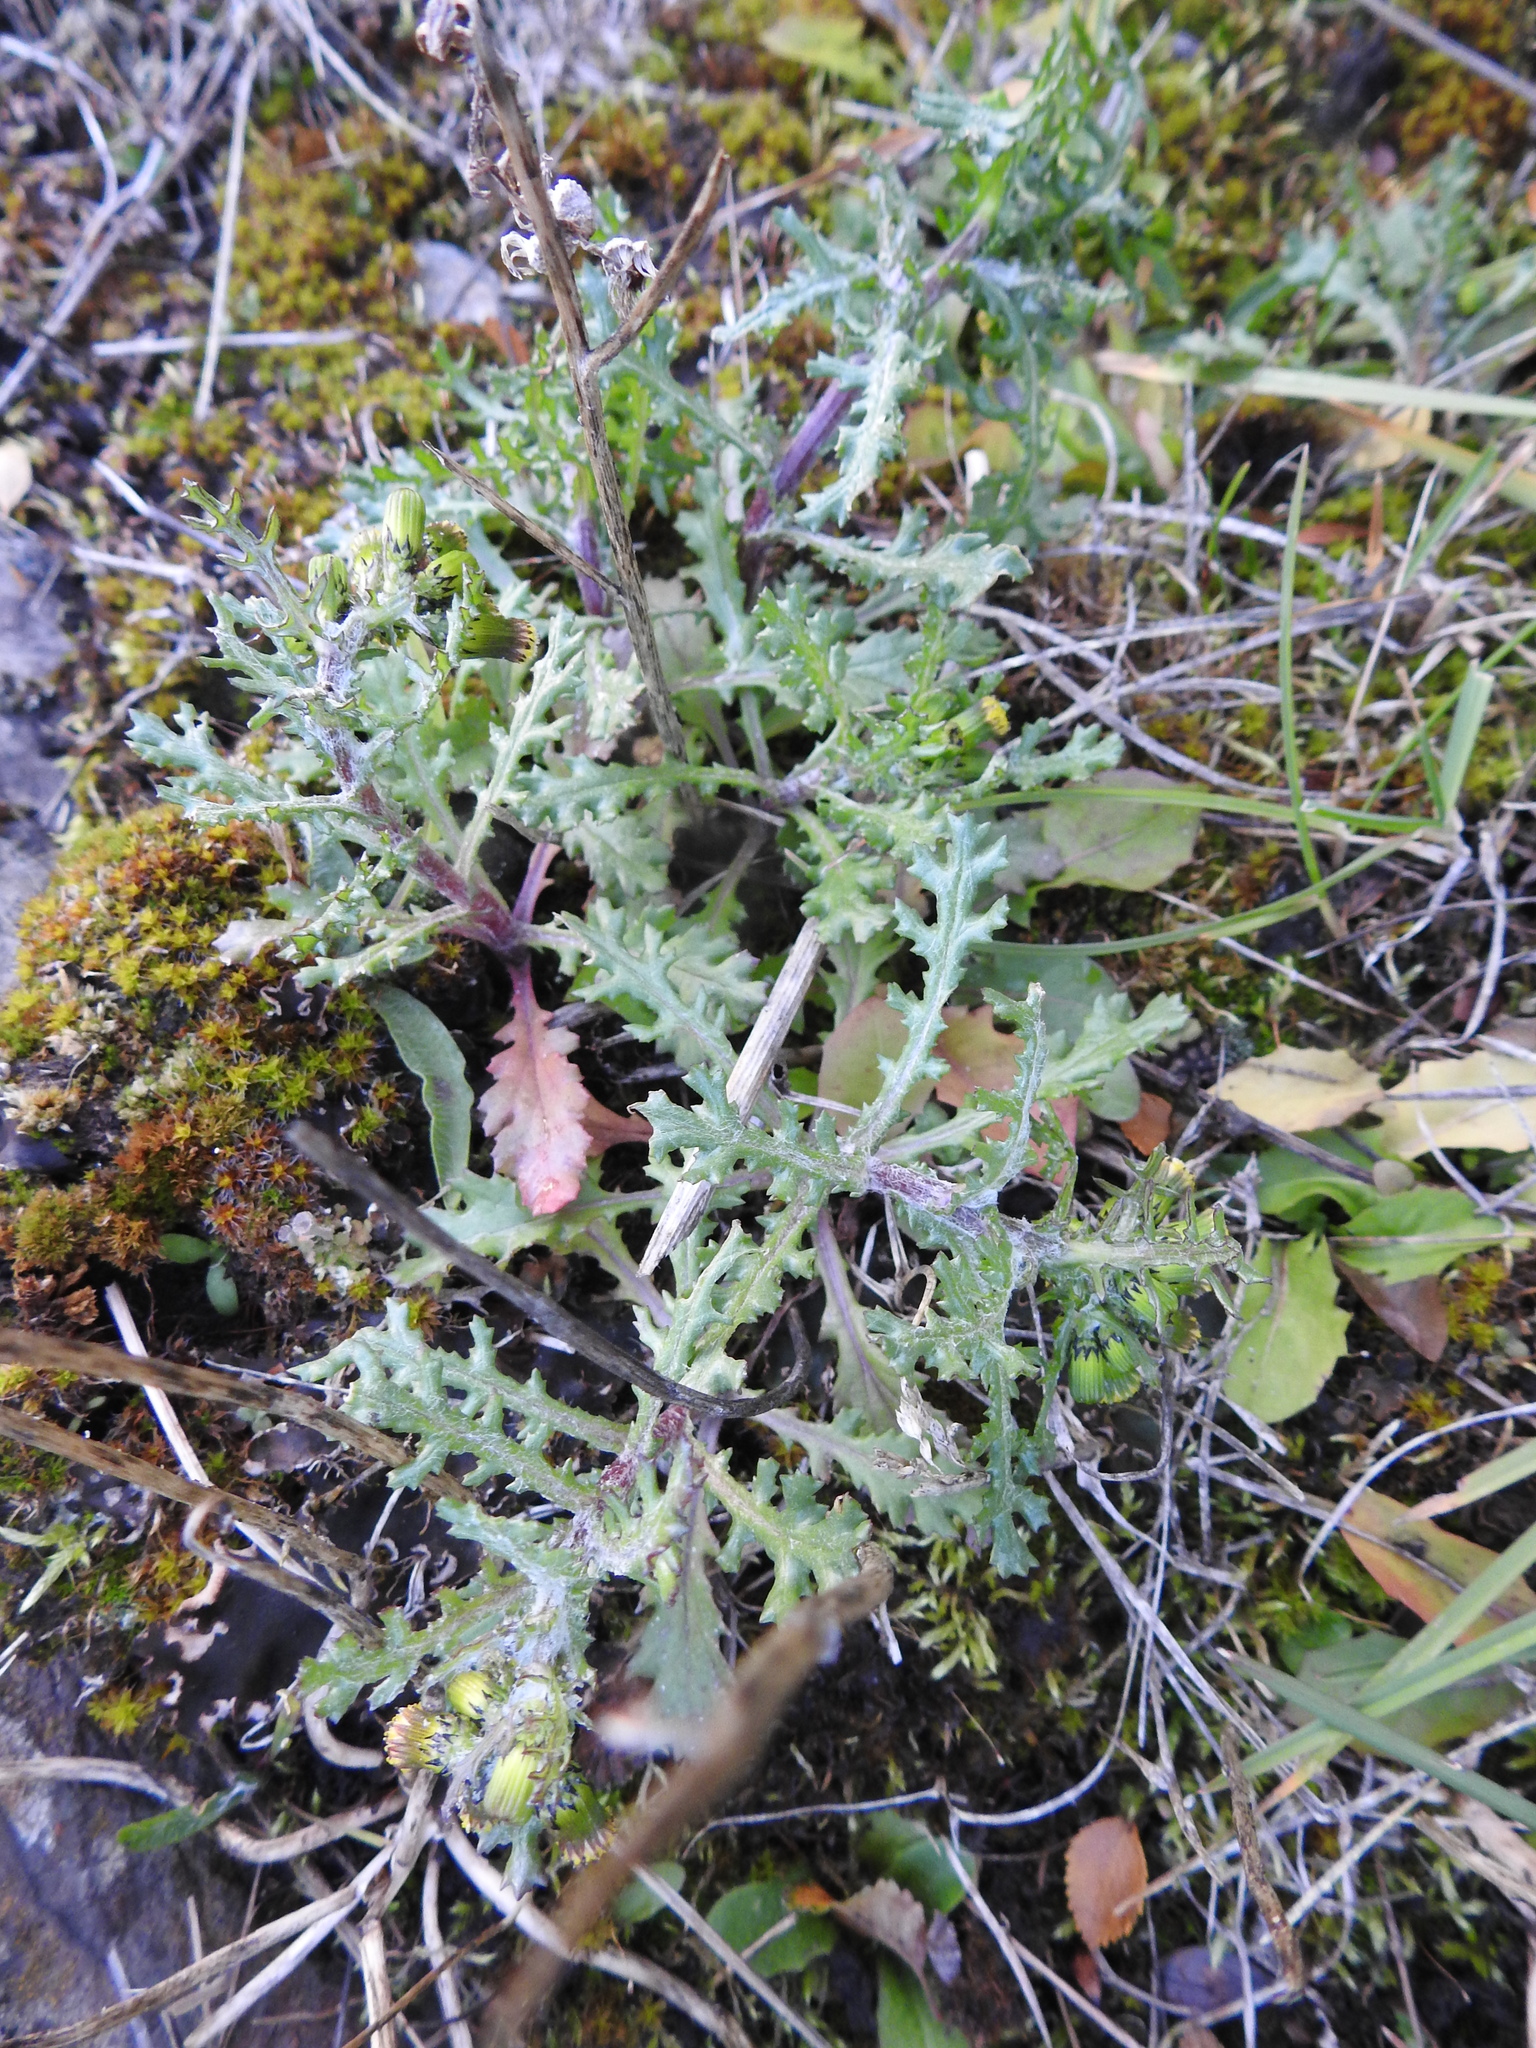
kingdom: Plantae
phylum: Tracheophyta
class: Magnoliopsida
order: Asterales
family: Asteraceae
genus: Senecio
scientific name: Senecio vulgaris
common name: Old-man-in-the-spring
